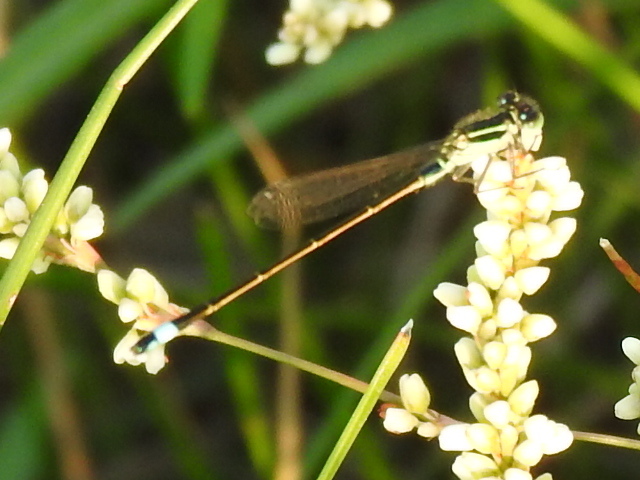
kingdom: Animalia
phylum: Arthropoda
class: Insecta
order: Odonata
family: Coenagrionidae
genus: Ischnura
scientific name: Ischnura ramburii
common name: Rambur's forktail
